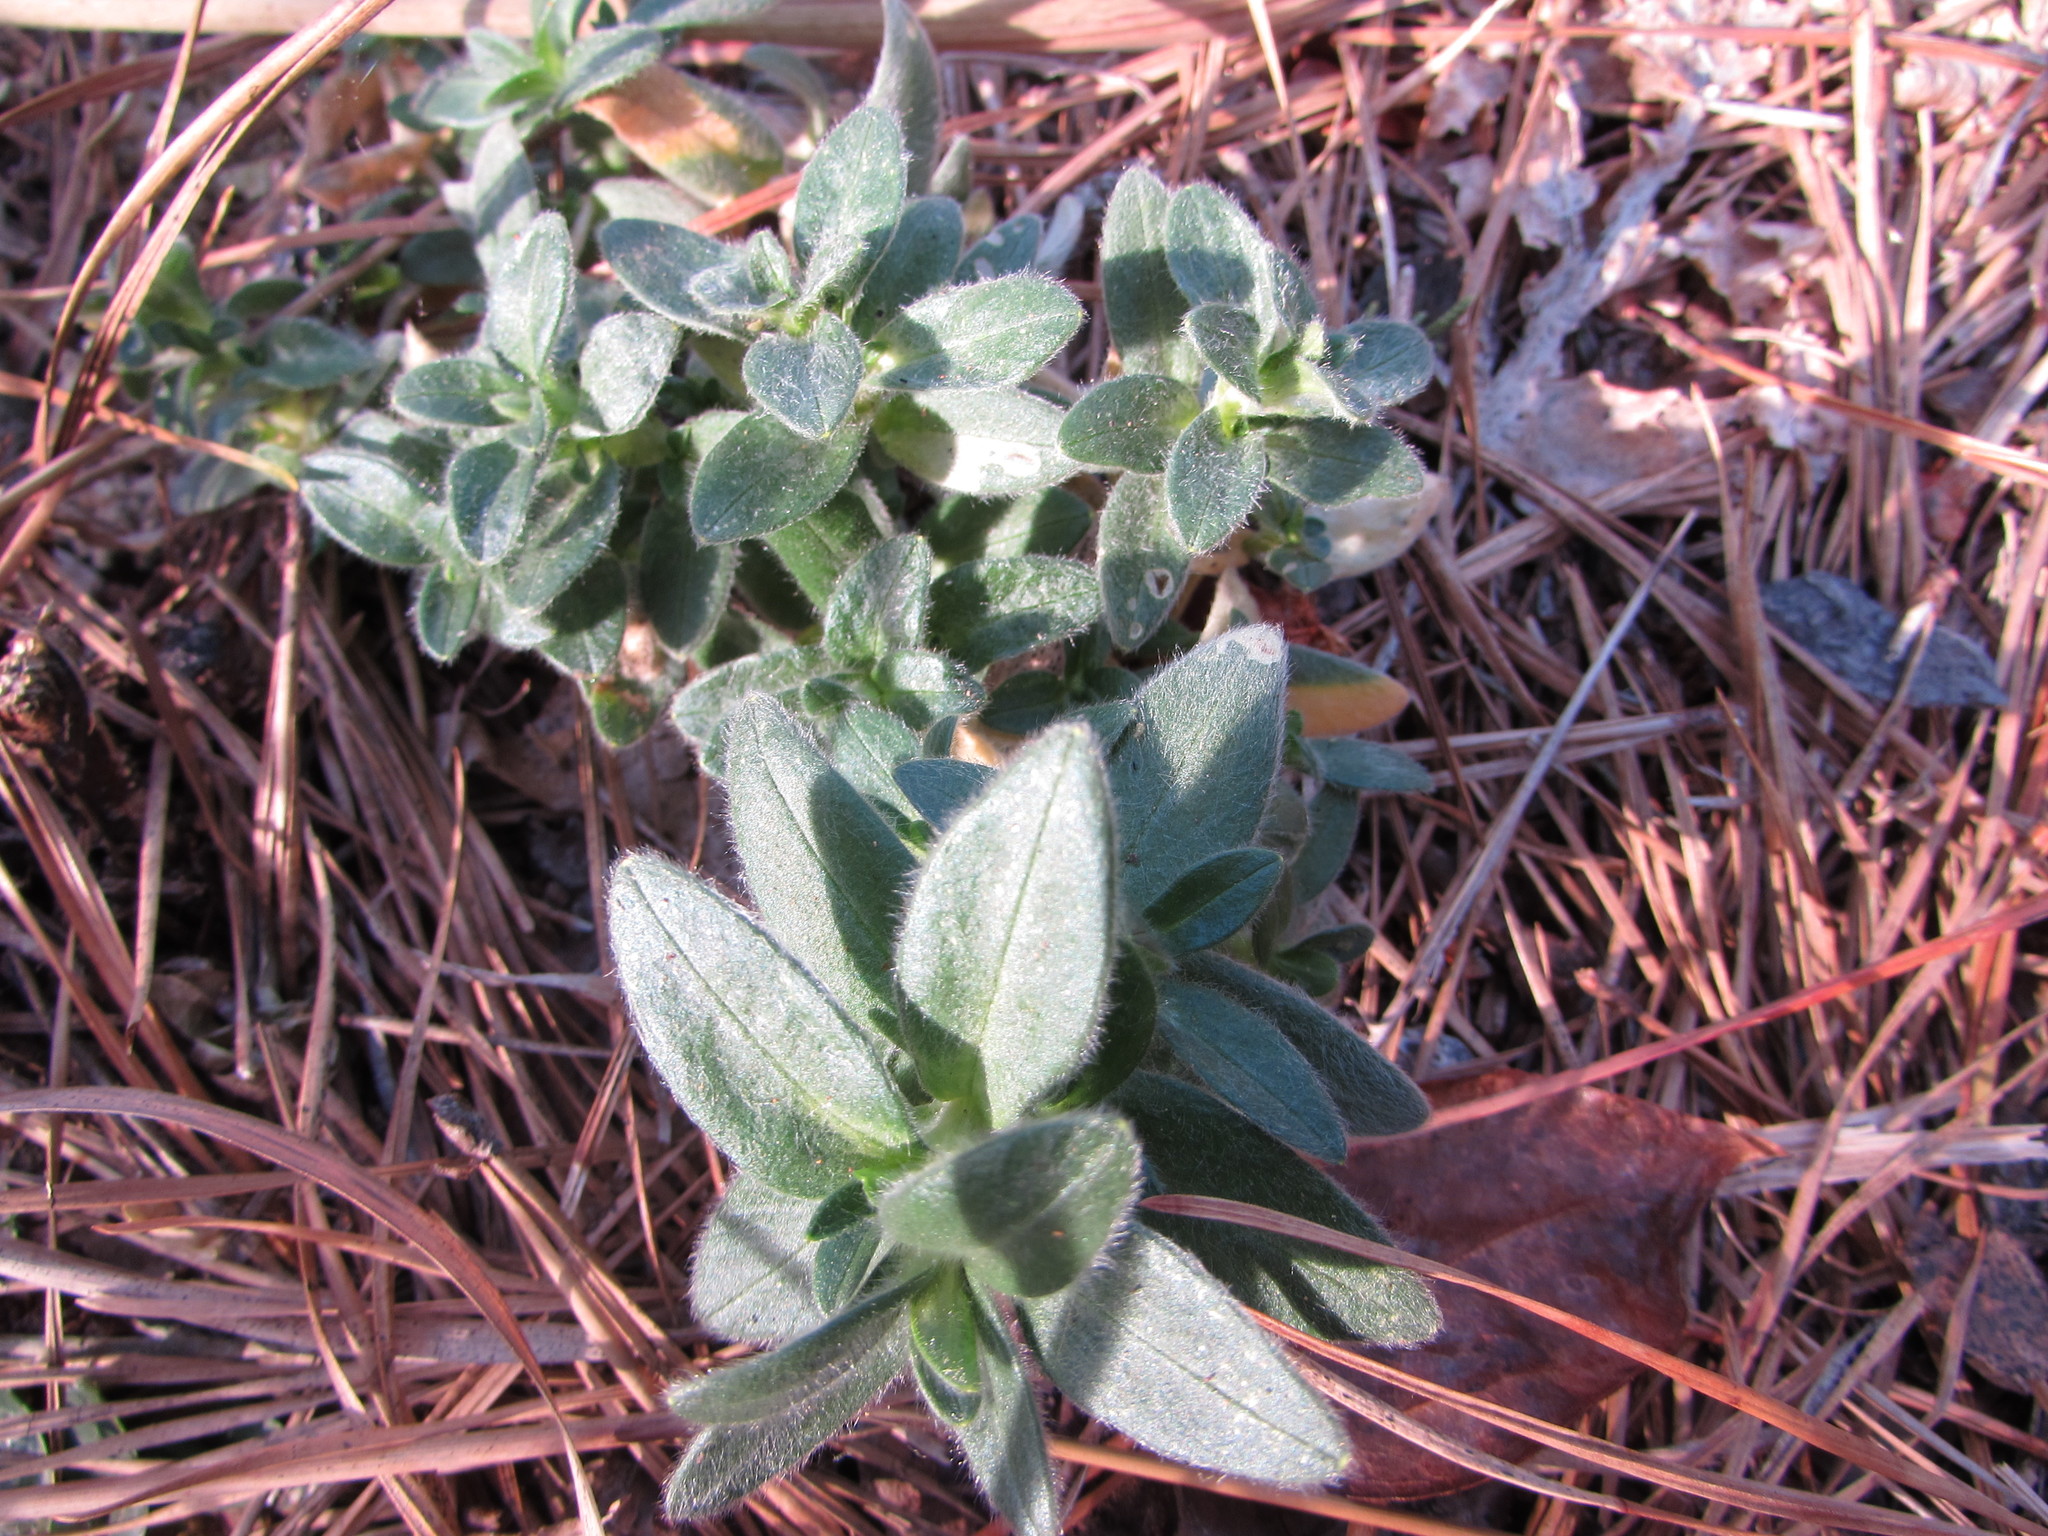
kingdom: Plantae
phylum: Tracheophyta
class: Magnoliopsida
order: Caryophyllales
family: Caryophyllaceae
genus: Cerastium
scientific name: Cerastium velutinum
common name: Barren chickweed
